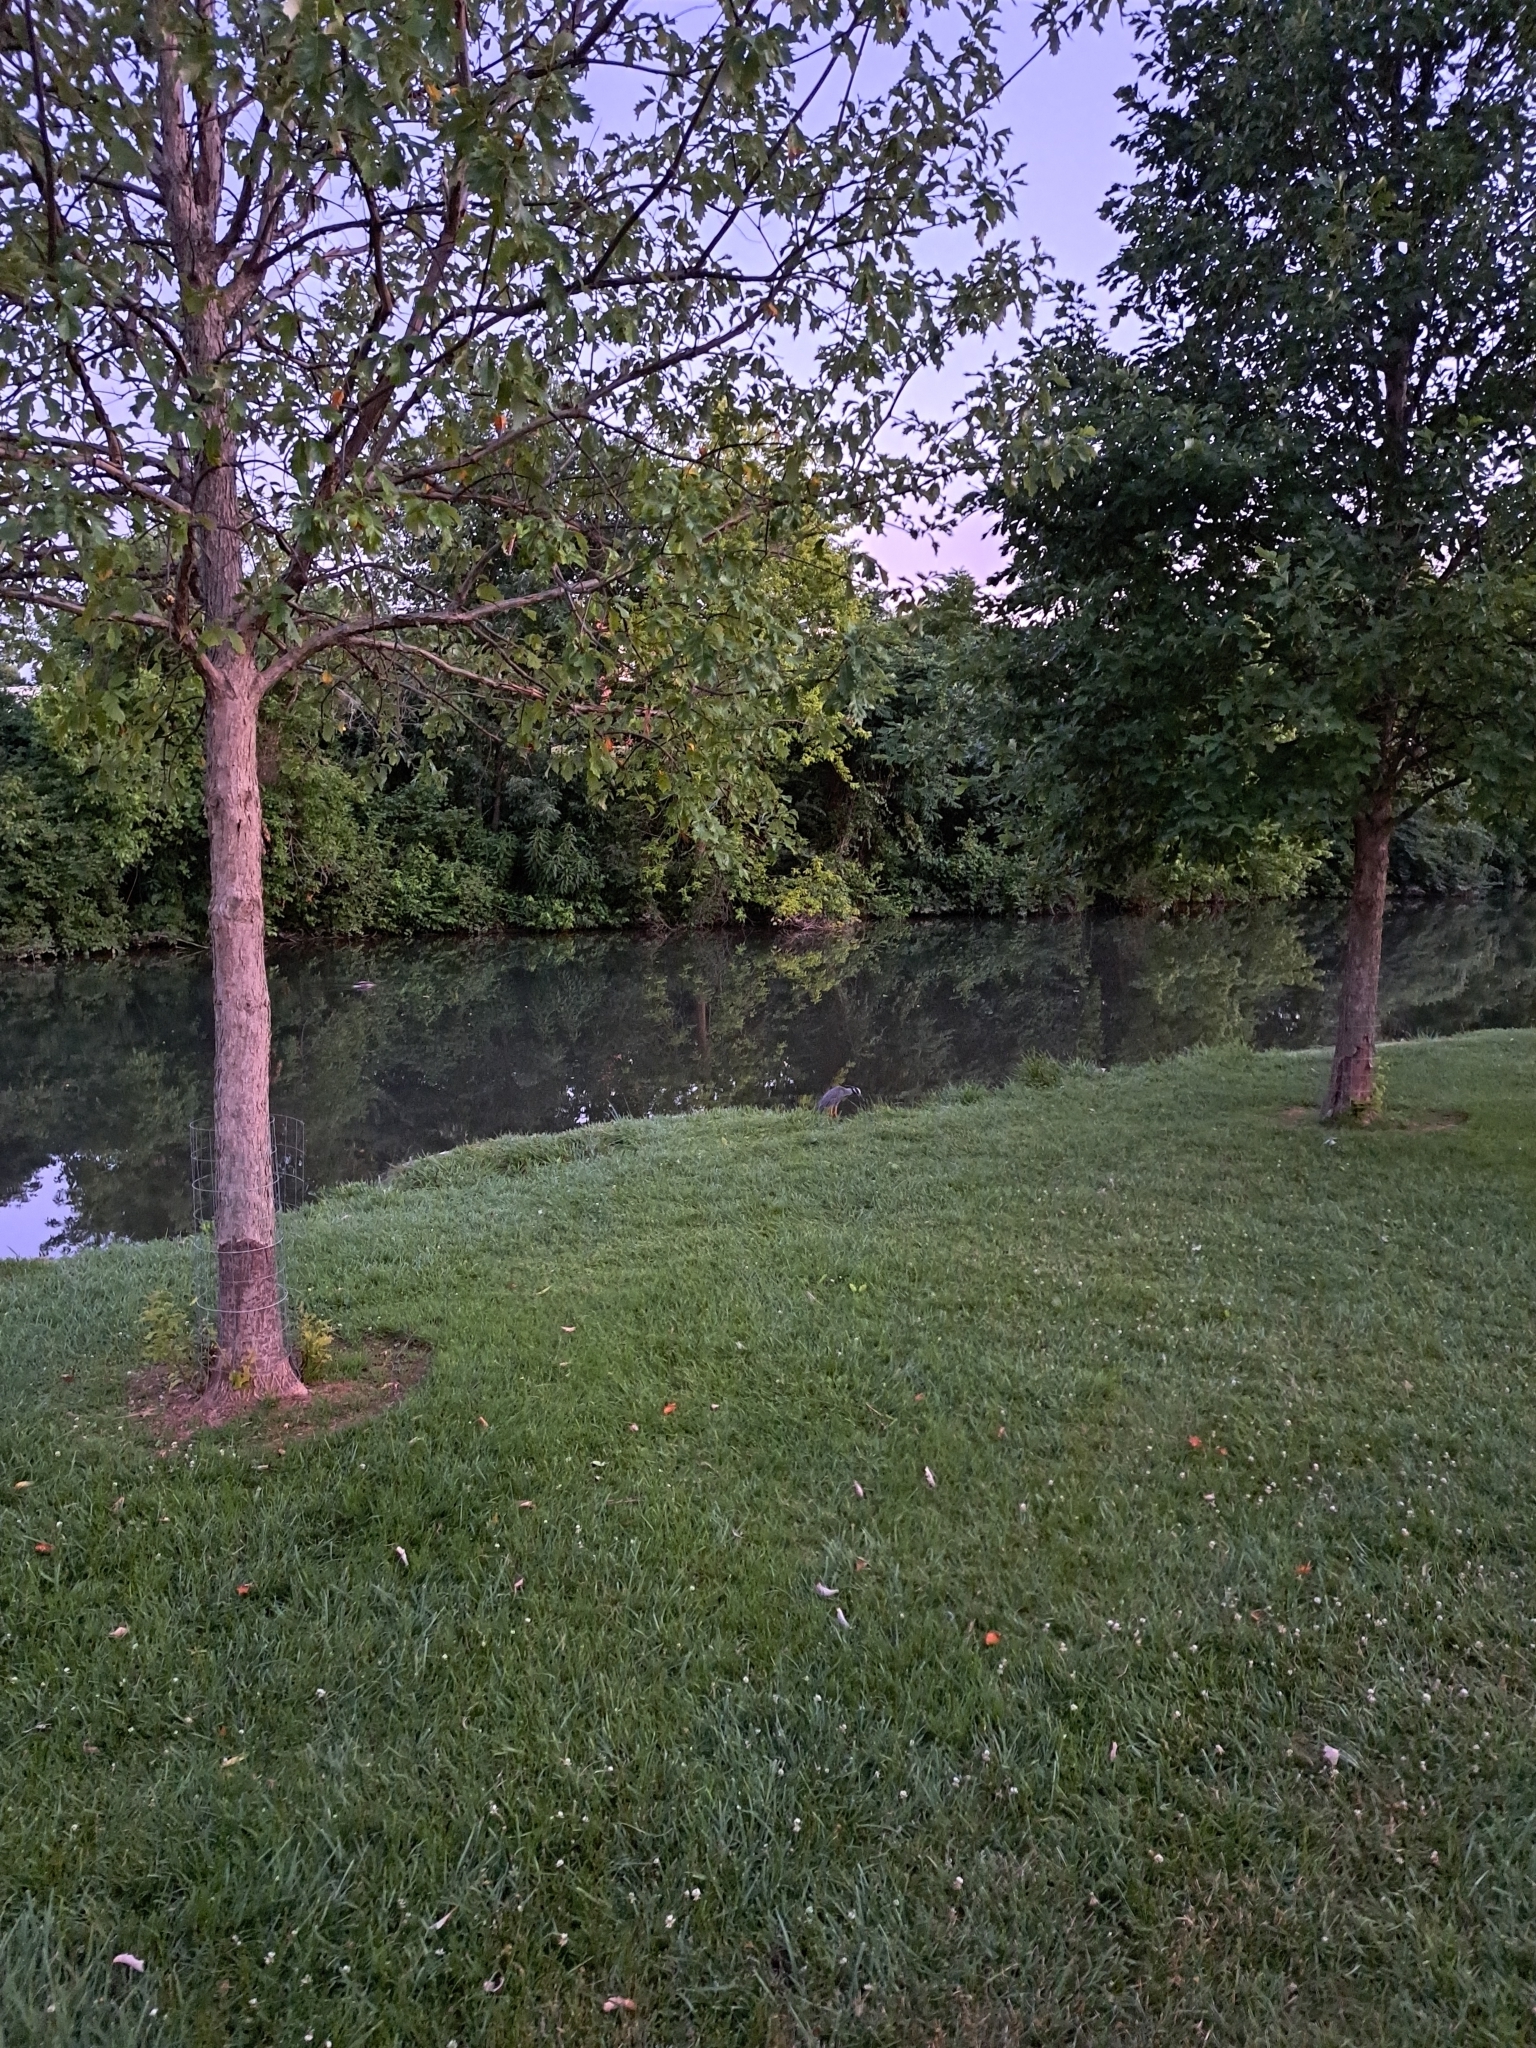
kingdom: Animalia
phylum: Chordata
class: Aves
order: Pelecaniformes
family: Ardeidae
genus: Nyctanassa
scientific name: Nyctanassa violacea
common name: Yellow-crowned night heron
